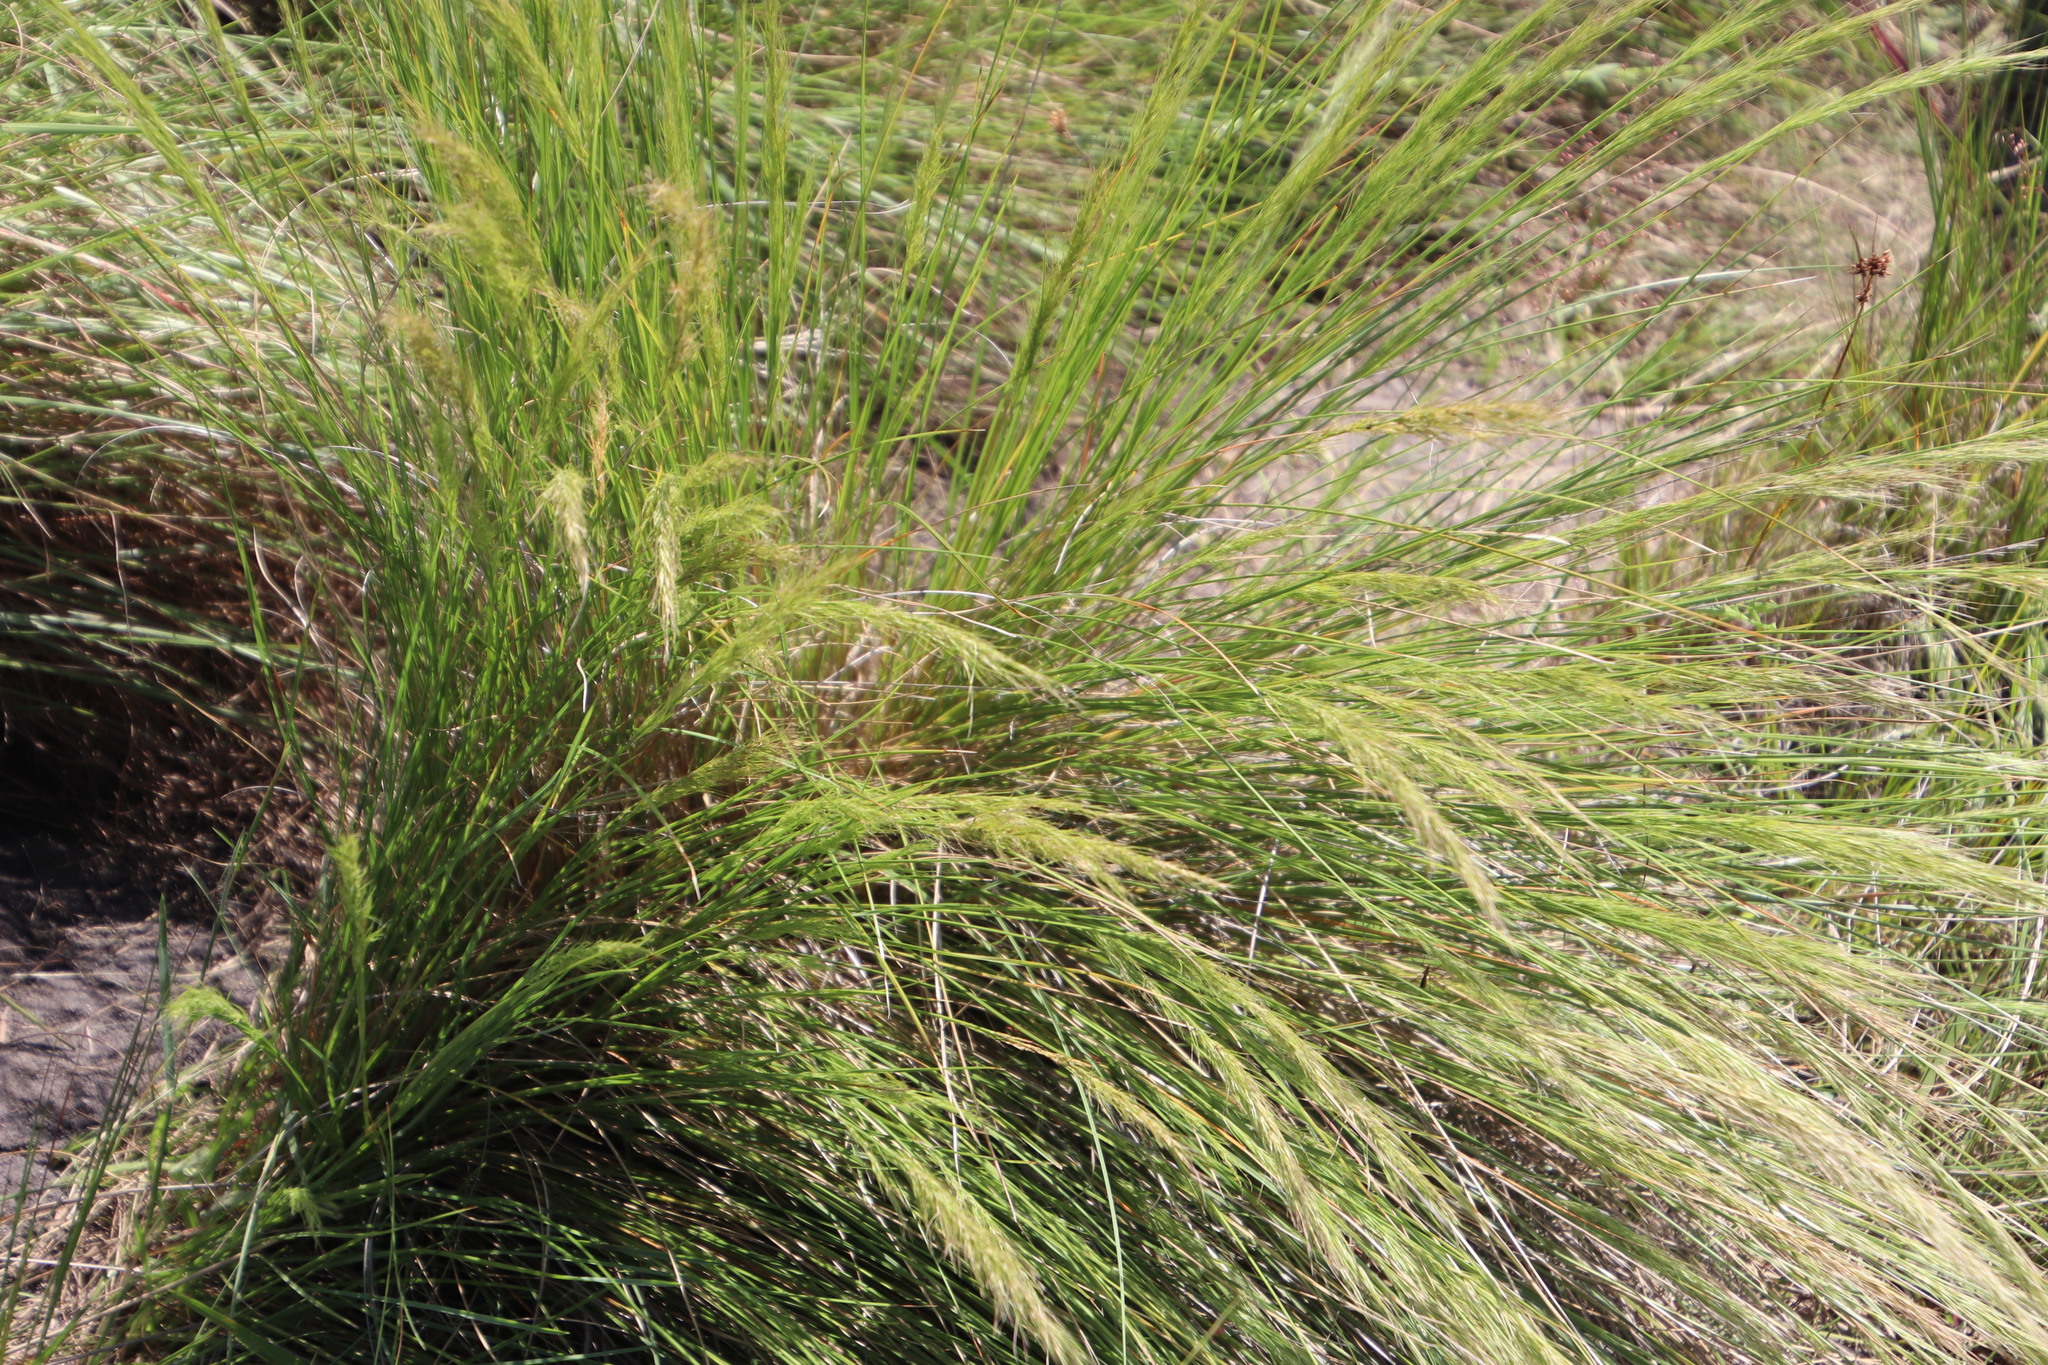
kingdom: Plantae
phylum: Tracheophyta
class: Liliopsida
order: Poales
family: Poaceae
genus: Aristida
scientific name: Aristida junciformis
